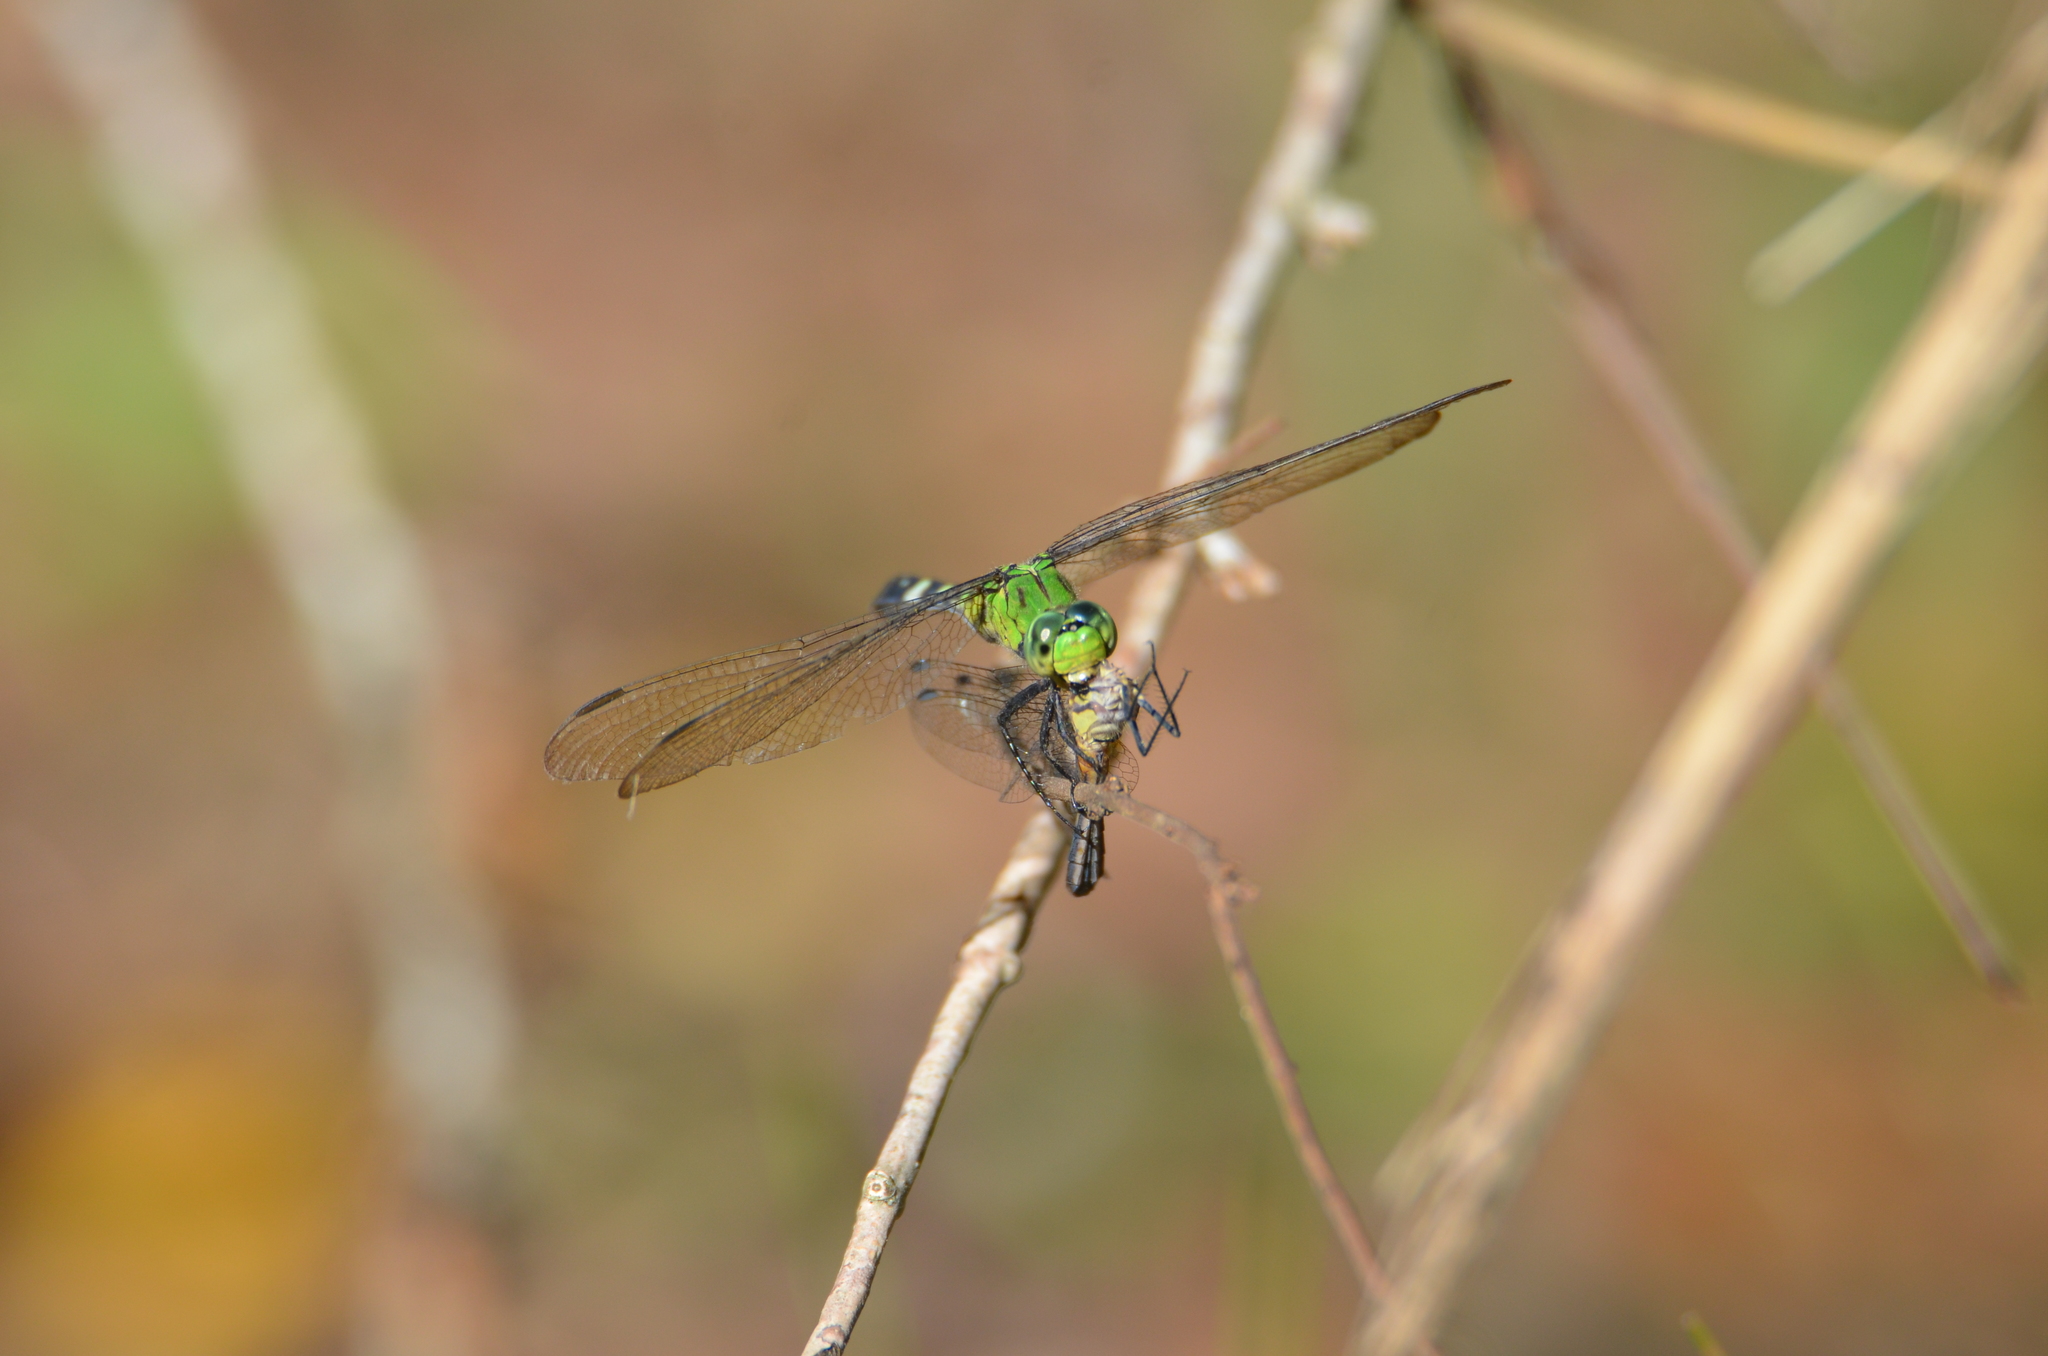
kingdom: Animalia
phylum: Arthropoda
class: Insecta
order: Odonata
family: Libellulidae
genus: Erythemis
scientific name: Erythemis simplicicollis
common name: Eastern pondhawk
